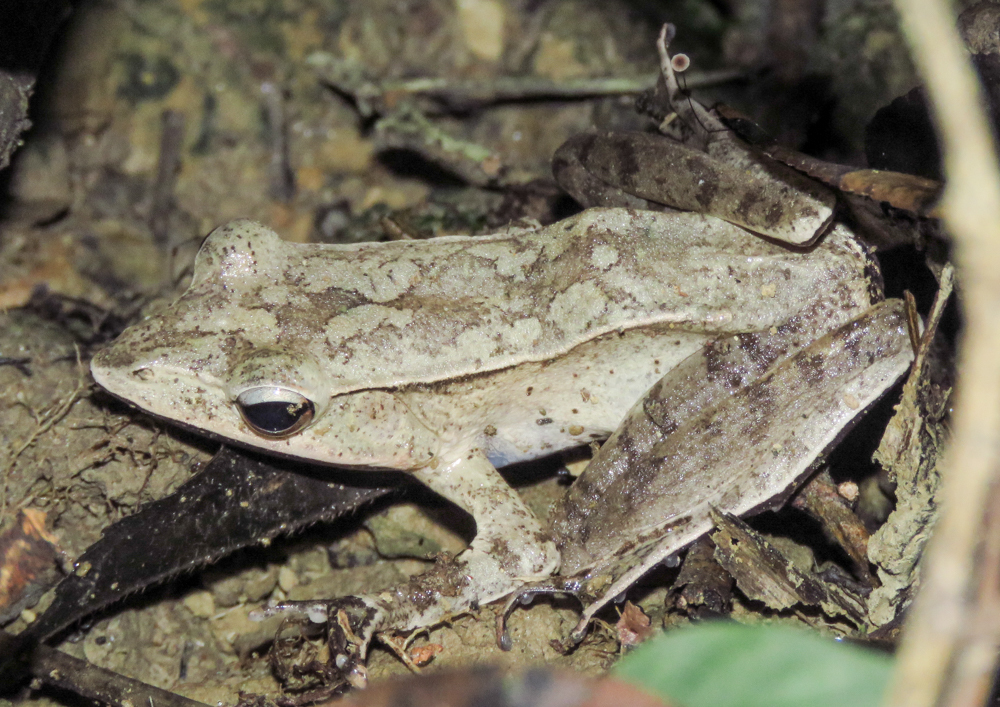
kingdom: Animalia
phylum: Chordata
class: Amphibia
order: Anura
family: Ranidae
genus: Clinotarsus
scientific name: Clinotarsus alticola
